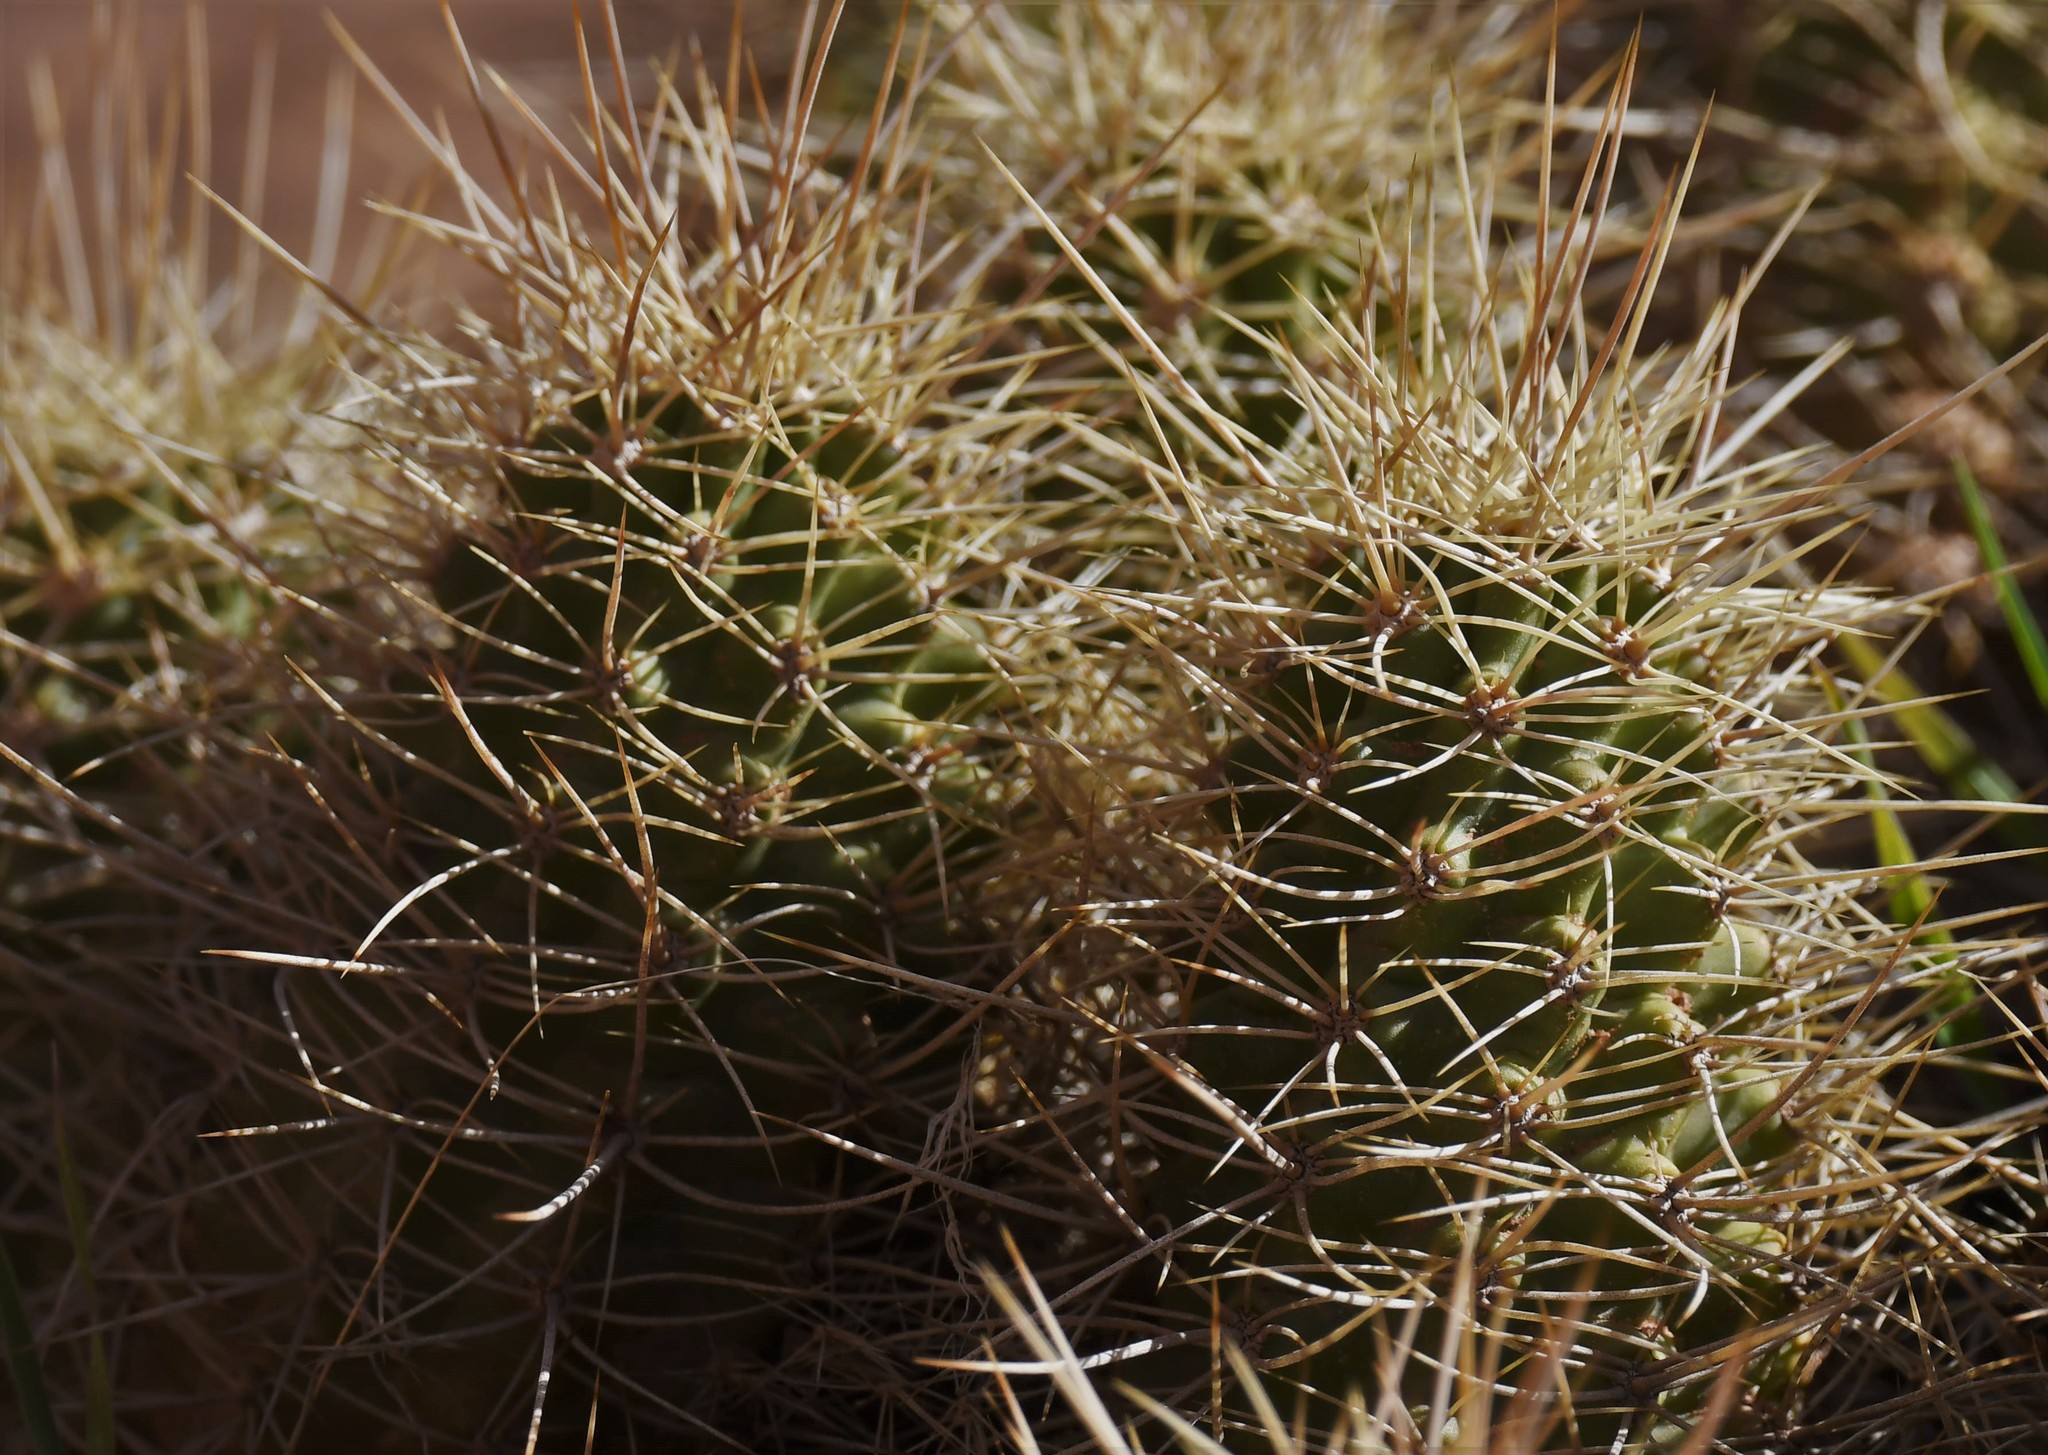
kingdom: Plantae
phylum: Tracheophyta
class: Magnoliopsida
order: Caryophyllales
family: Cactaceae
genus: Echinocereus
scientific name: Echinocereus triglochidiatus
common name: Claretcup hedgehog
